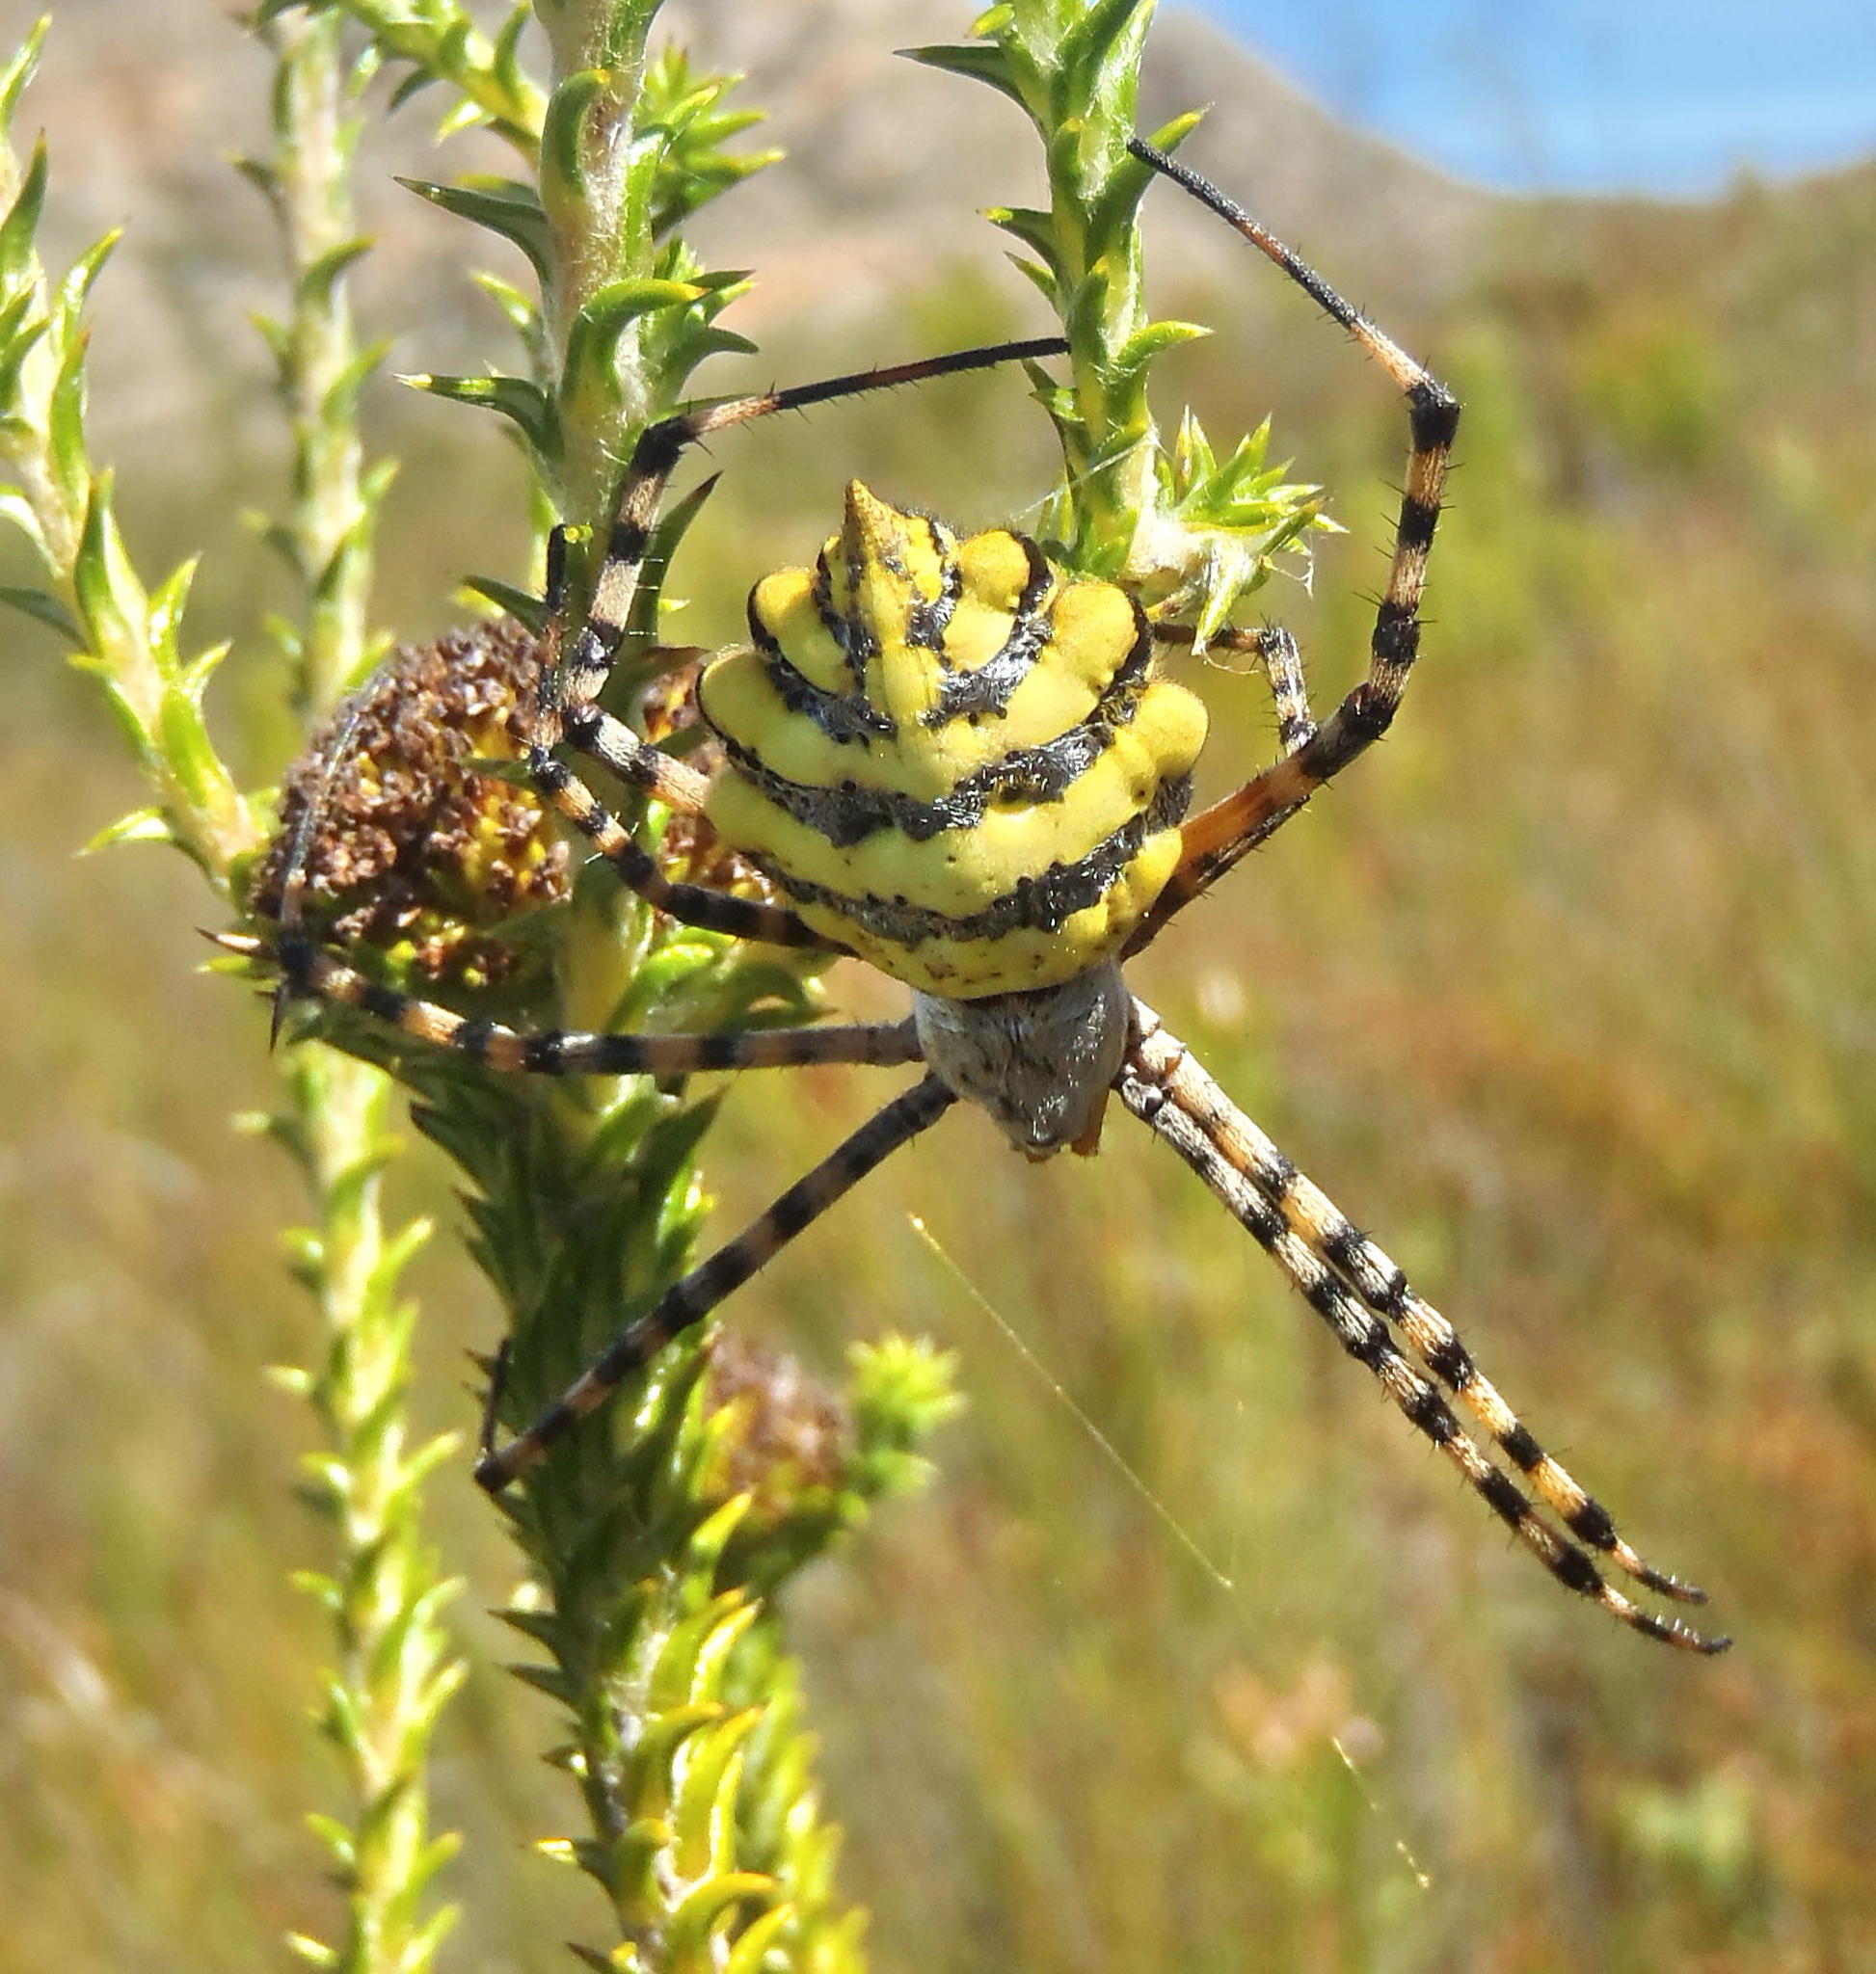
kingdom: Animalia
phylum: Arthropoda
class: Arachnida
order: Araneae
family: Araneidae
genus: Argiope
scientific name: Argiope australis
